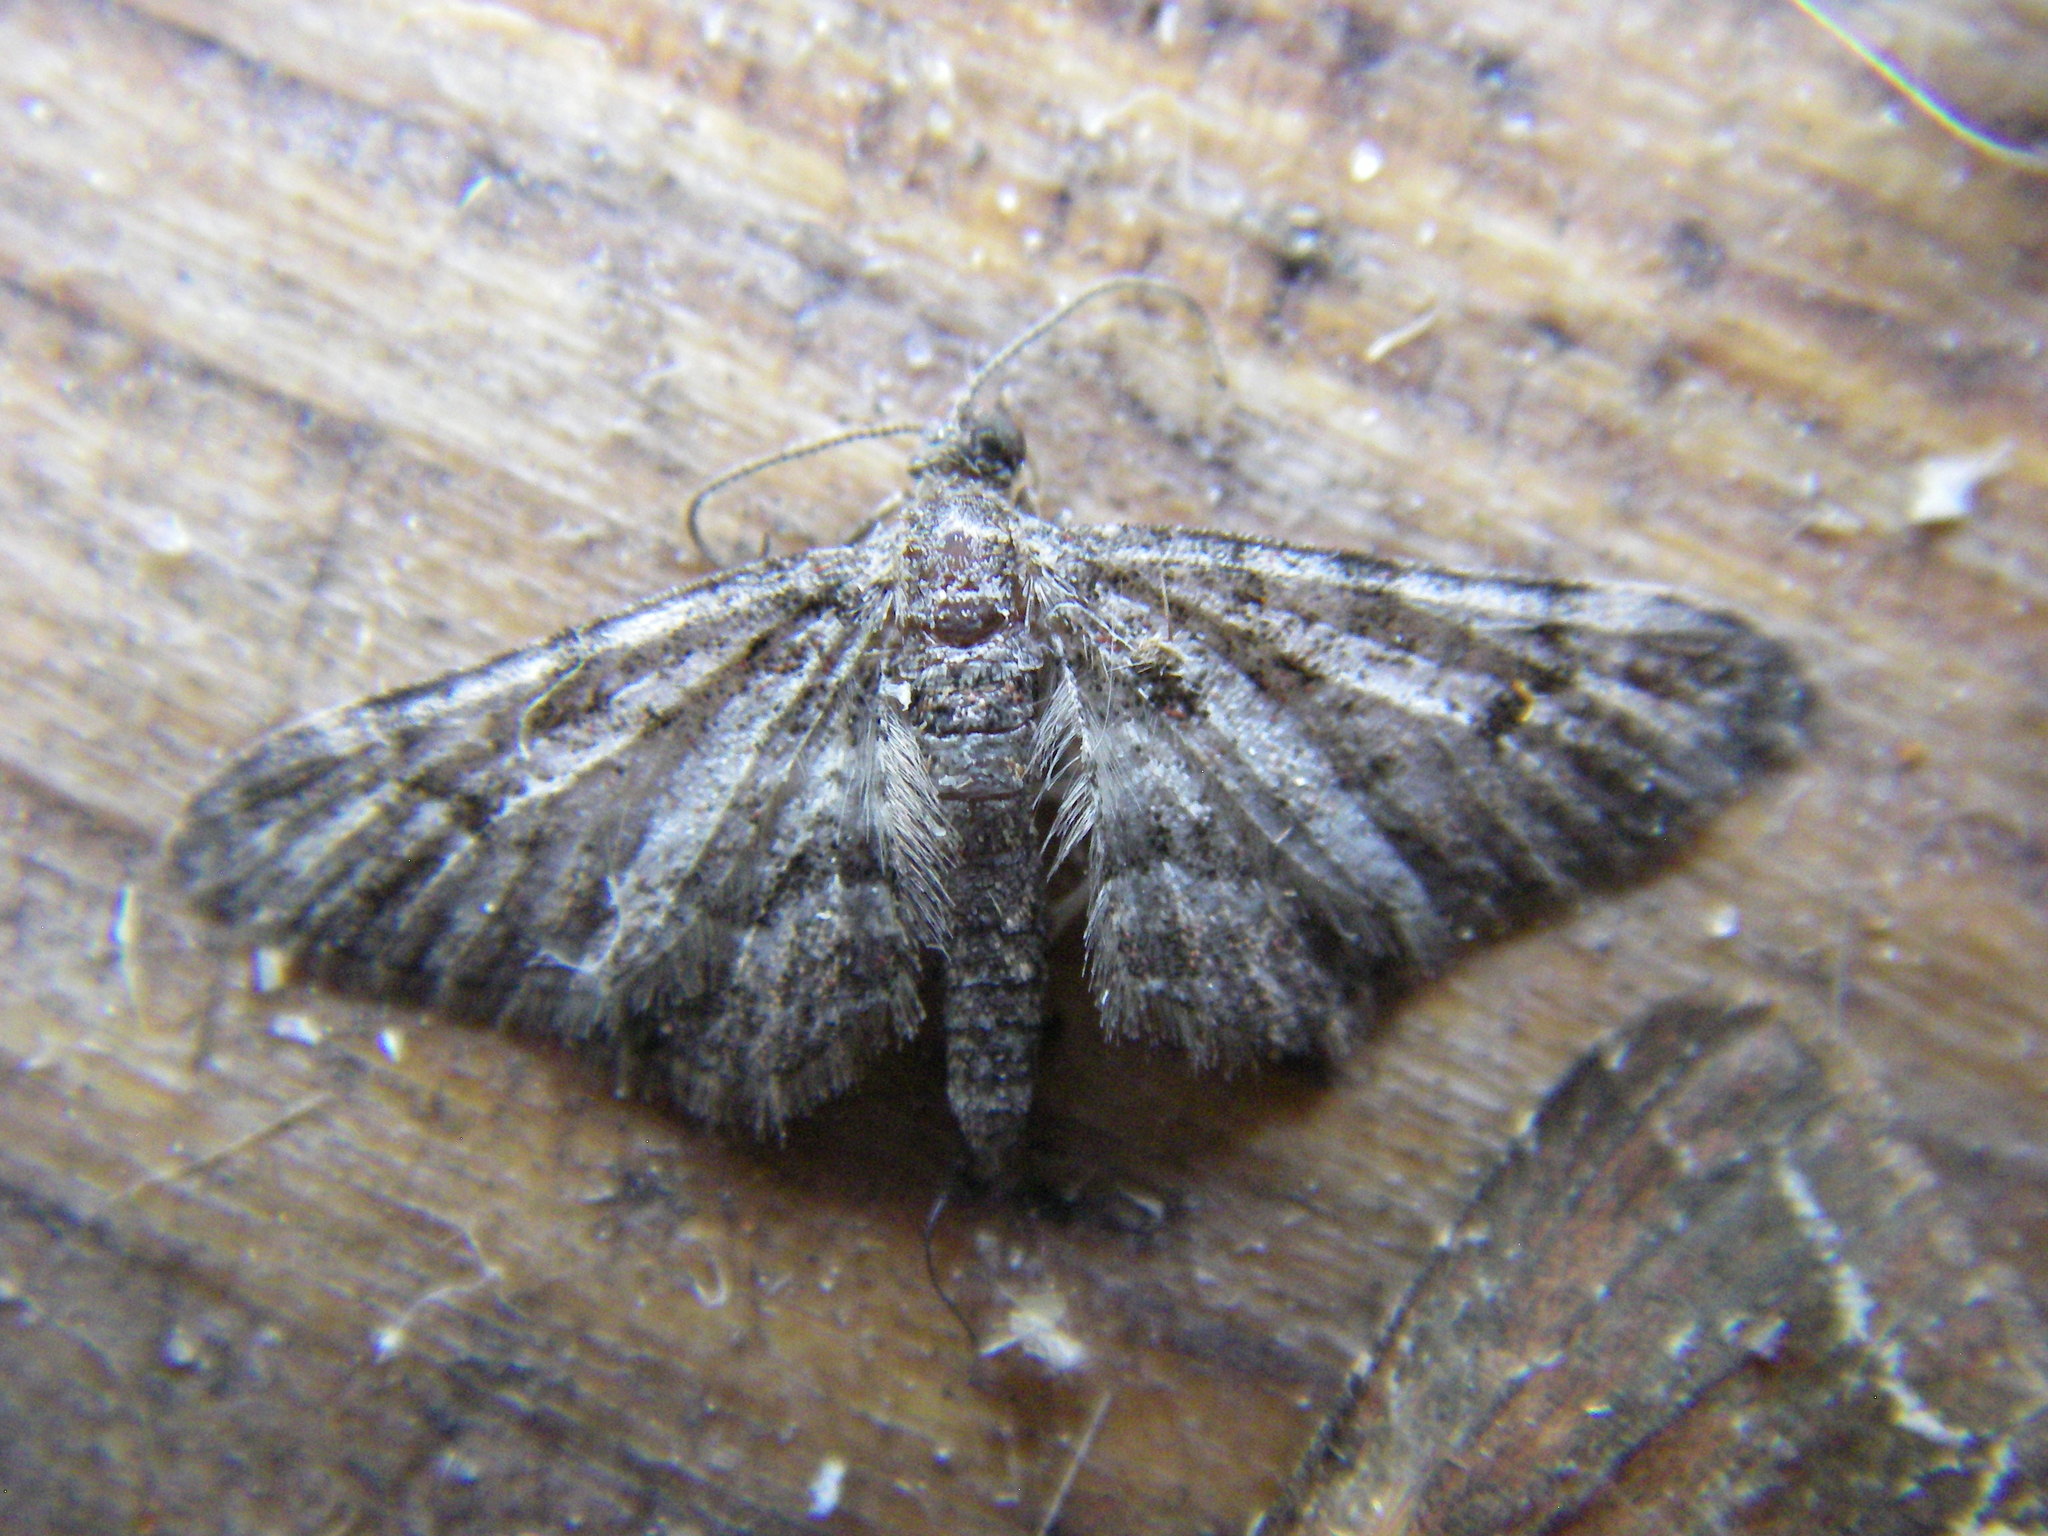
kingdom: Animalia
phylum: Arthropoda
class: Insecta
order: Lepidoptera
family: Geometridae
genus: Gymnoscelis
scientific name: Gymnoscelis rufifasciata
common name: Double-striped pug
